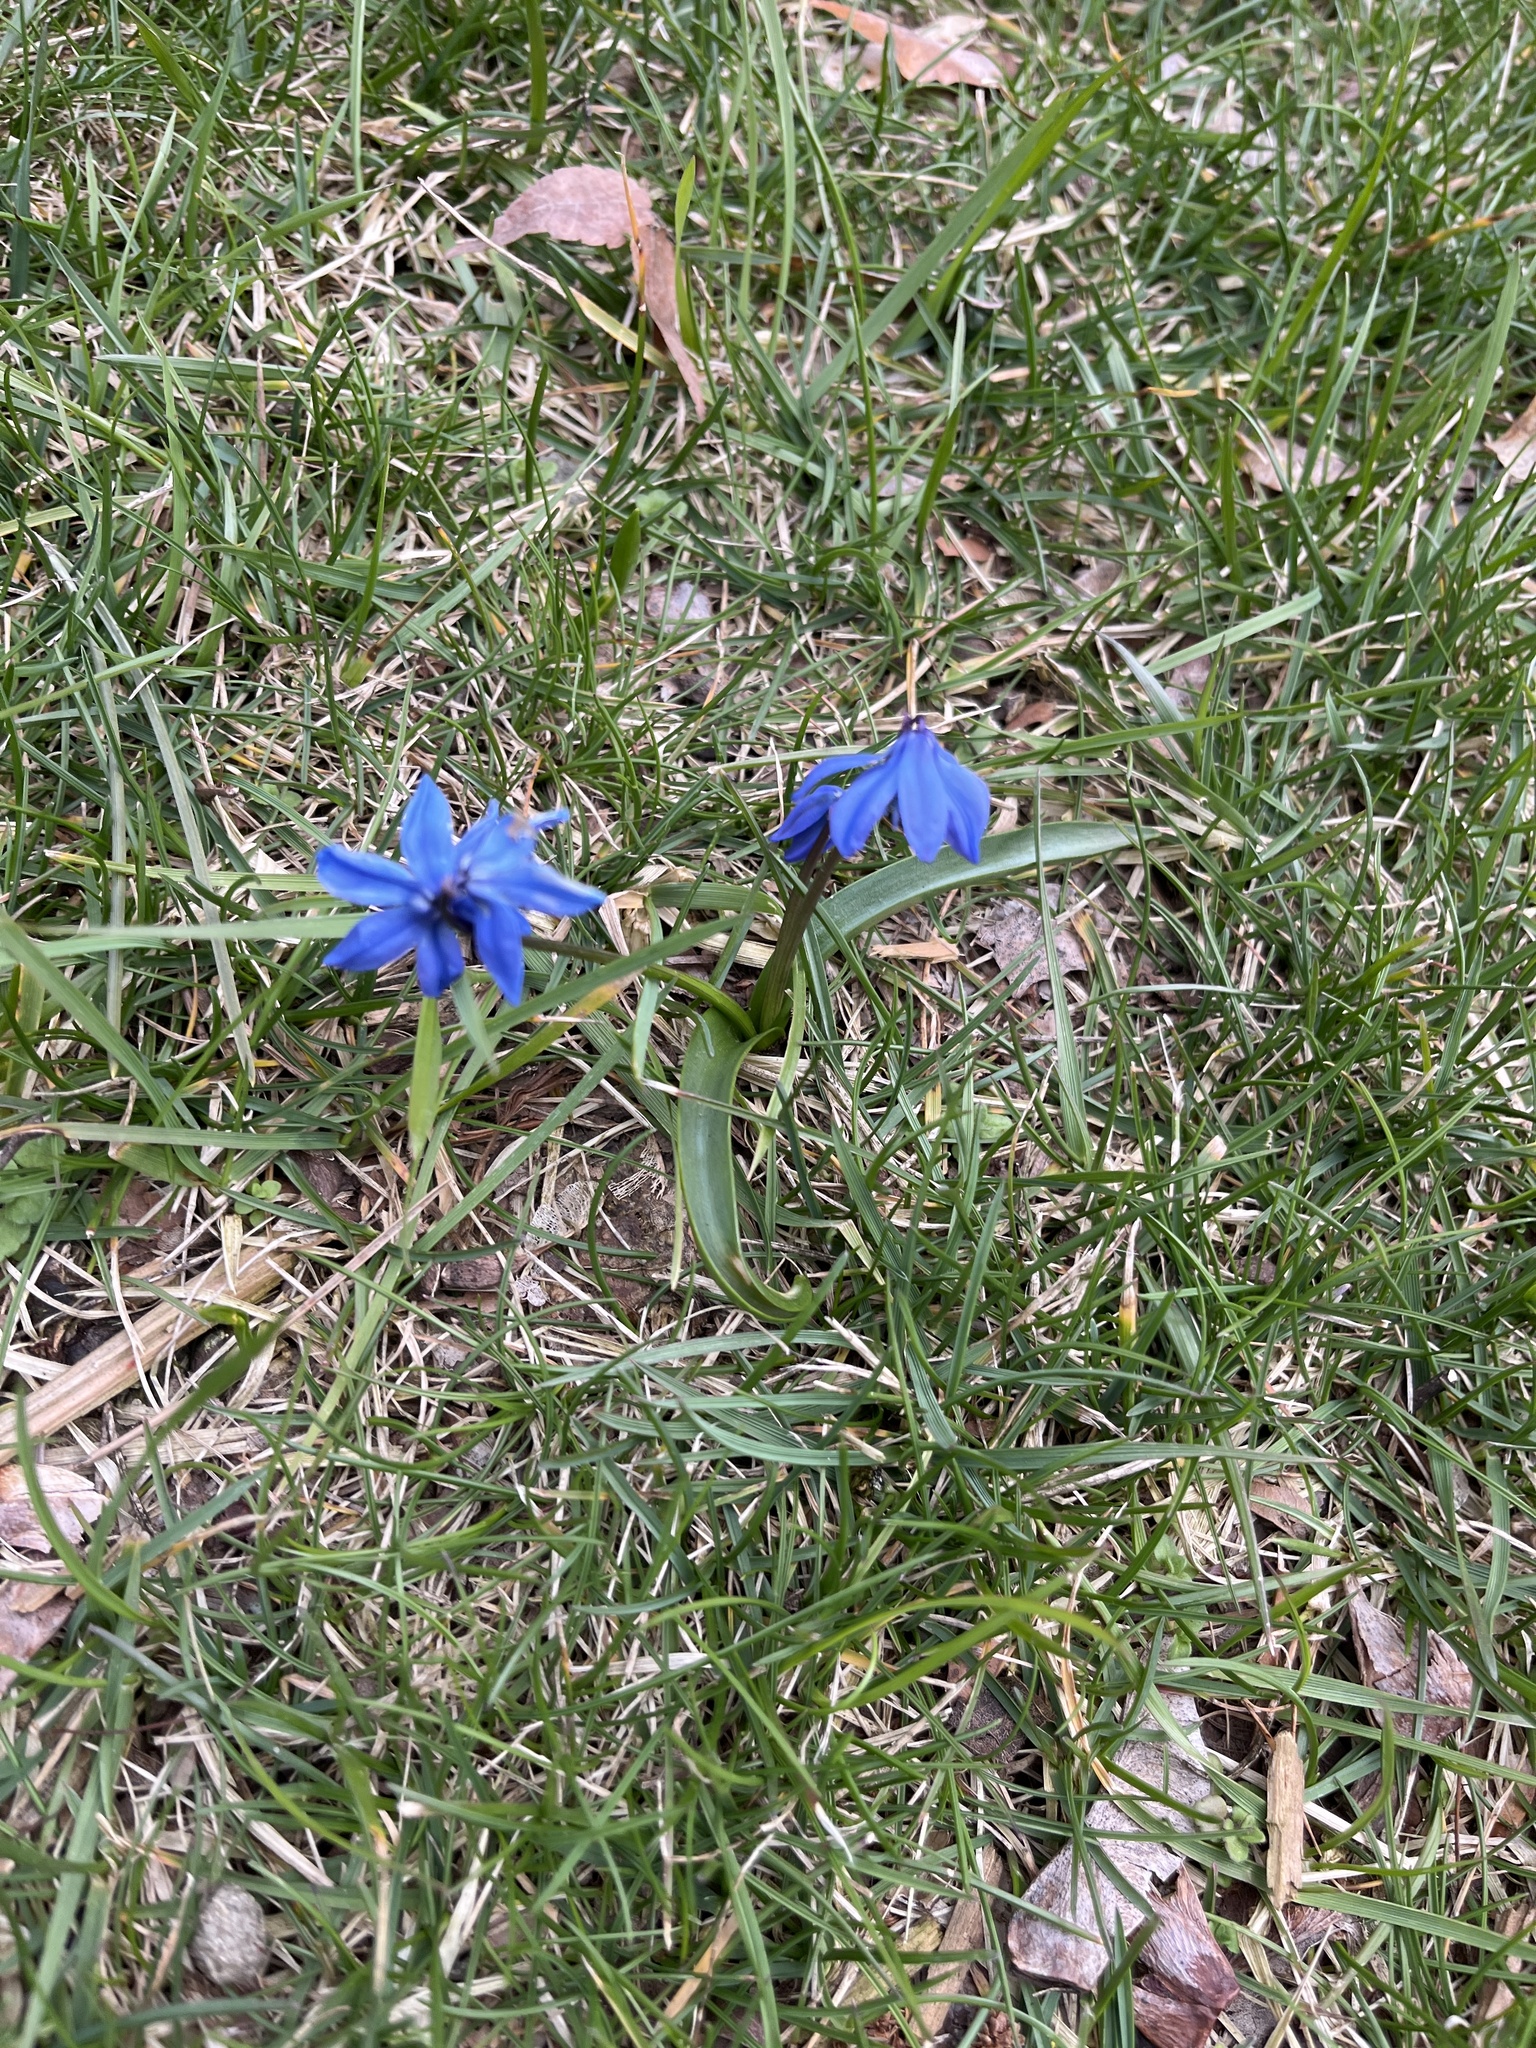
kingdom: Plantae
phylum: Tracheophyta
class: Liliopsida
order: Asparagales
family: Asparagaceae
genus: Scilla
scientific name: Scilla siberica
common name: Siberian squill
